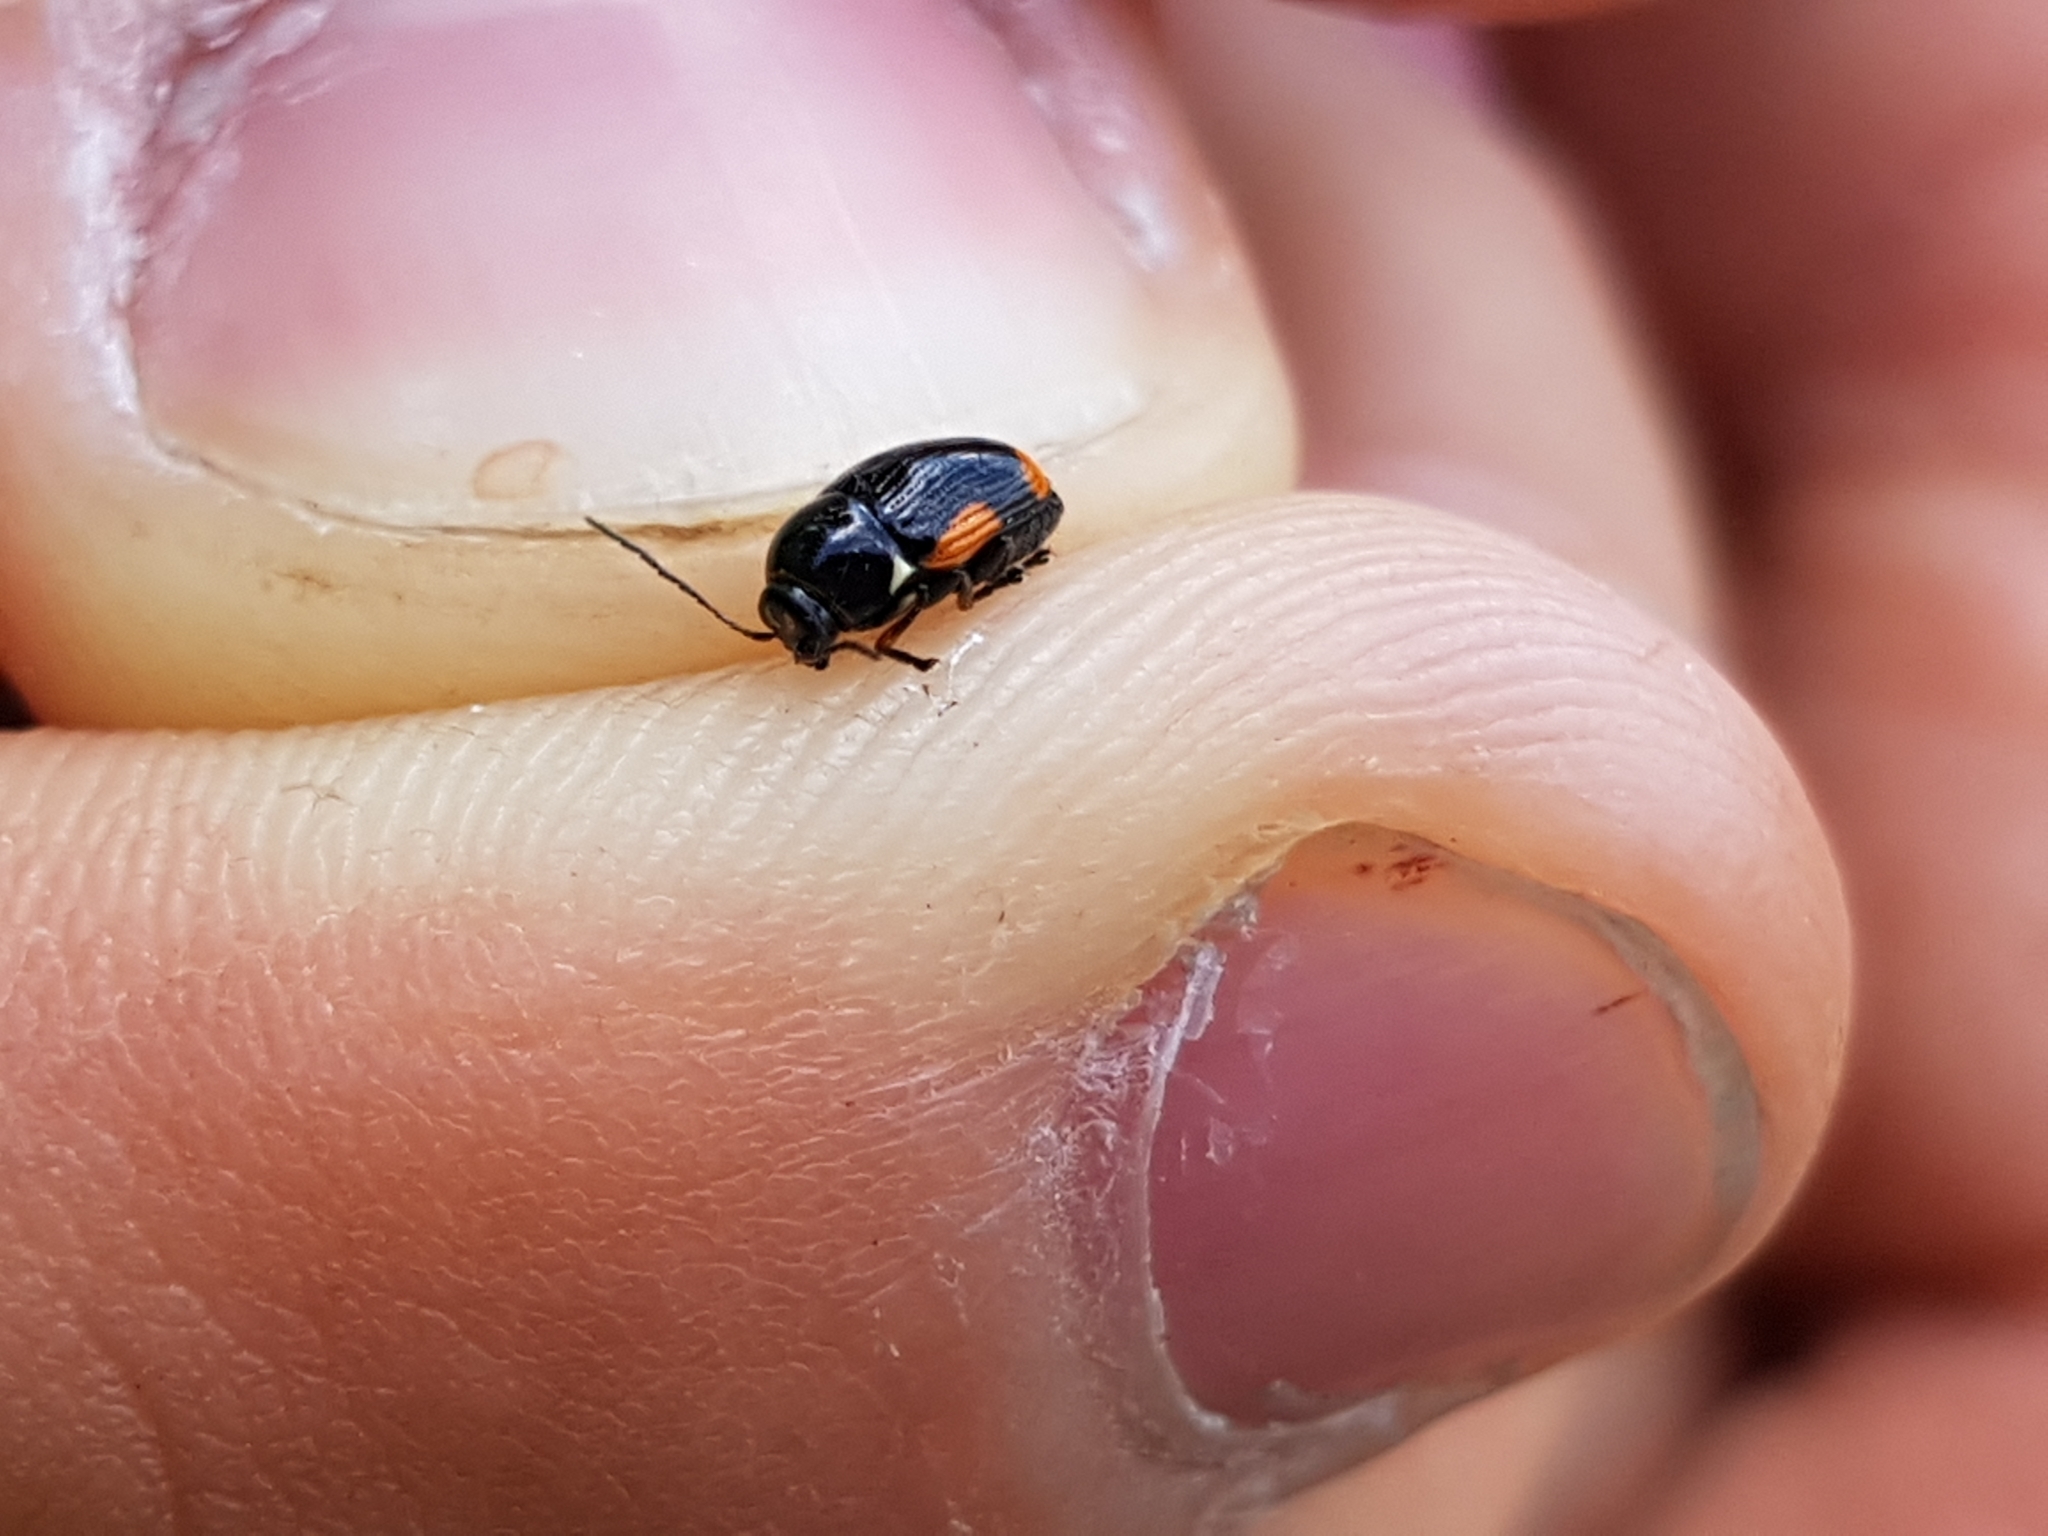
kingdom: Animalia
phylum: Arthropoda
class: Insecta
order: Coleoptera
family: Chrysomelidae
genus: Cryptocephalus
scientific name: Cryptocephalus moraei
